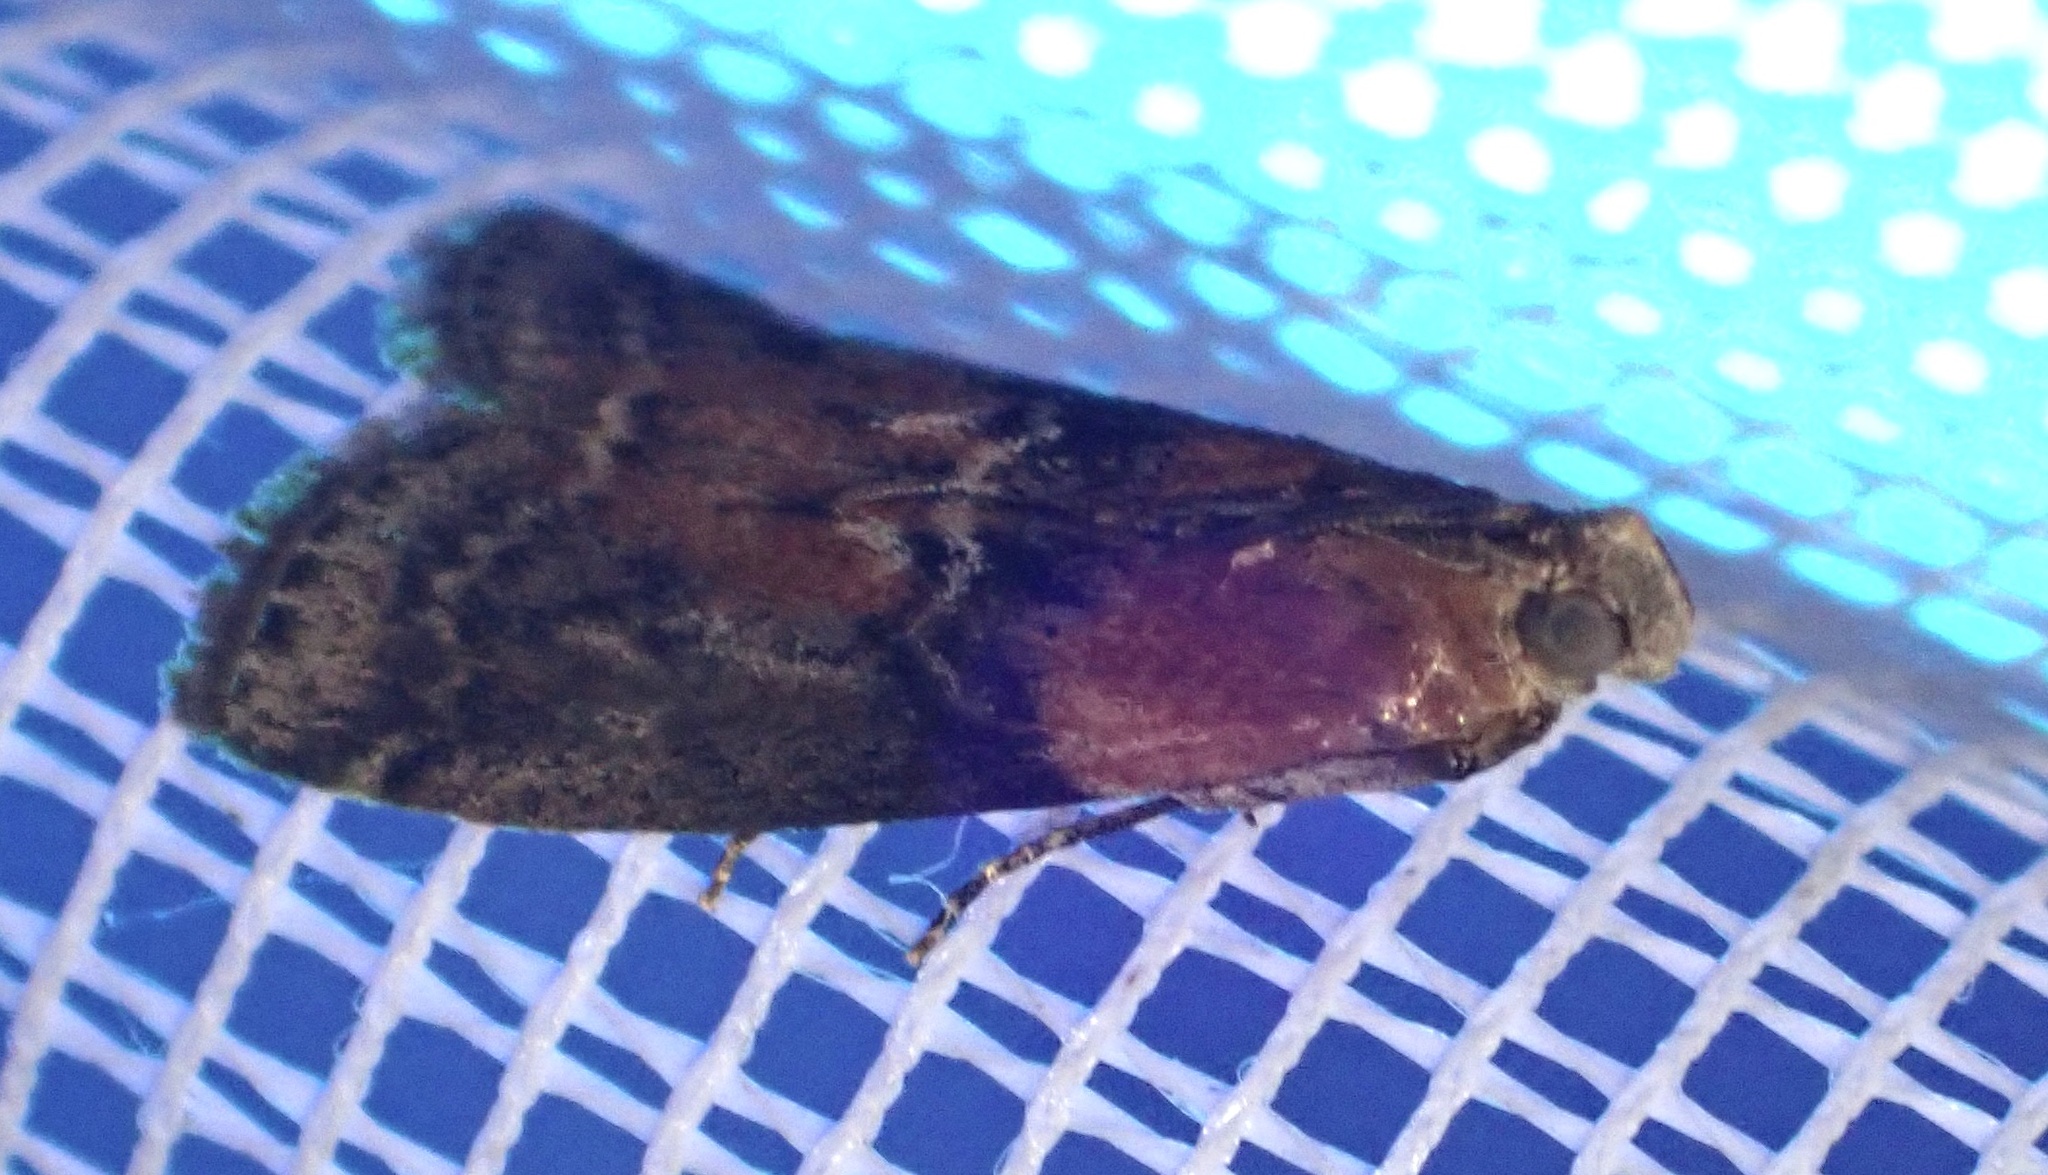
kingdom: Animalia
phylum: Arthropoda
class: Insecta
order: Lepidoptera
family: Pyralidae
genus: Sciota
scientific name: Sciota adelphella
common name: Willow knot-horn
